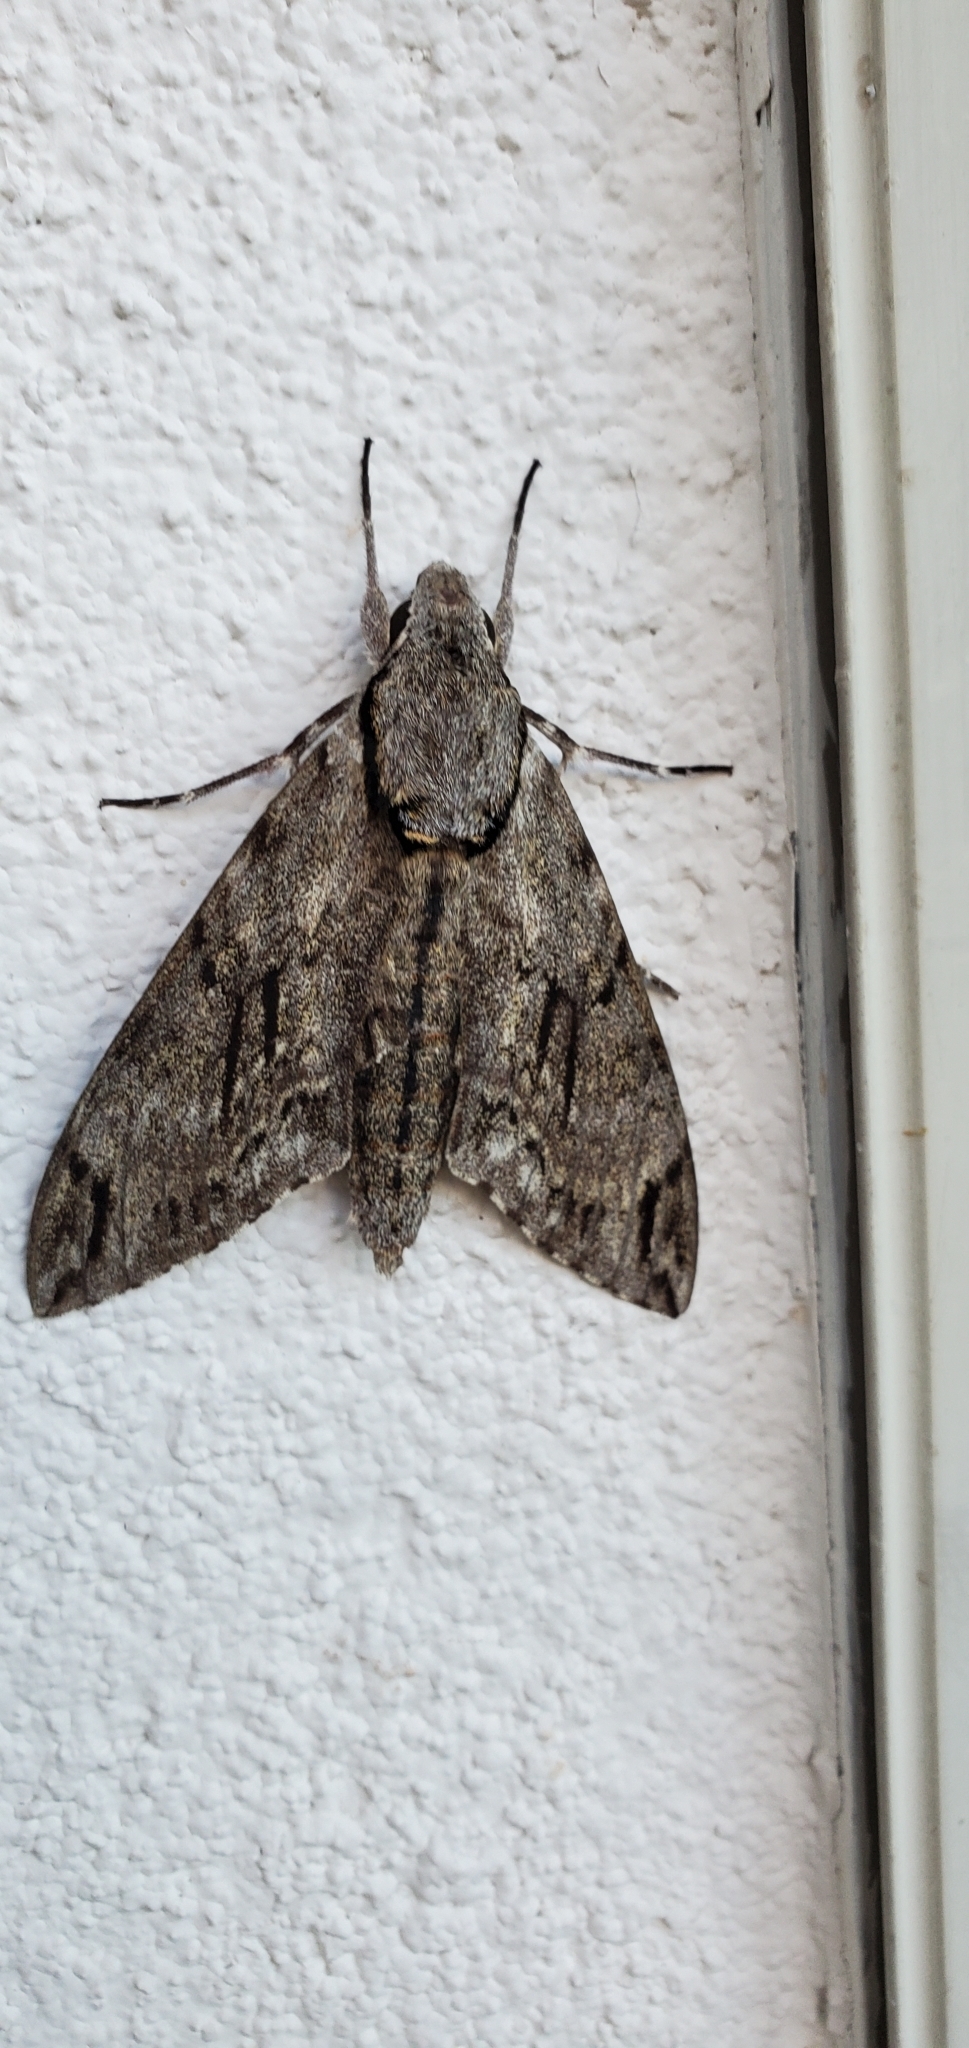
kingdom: Animalia
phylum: Arthropoda
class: Insecta
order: Lepidoptera
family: Sphingidae
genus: Psilogramma
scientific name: Psilogramma increta
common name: Gray hawk moth
